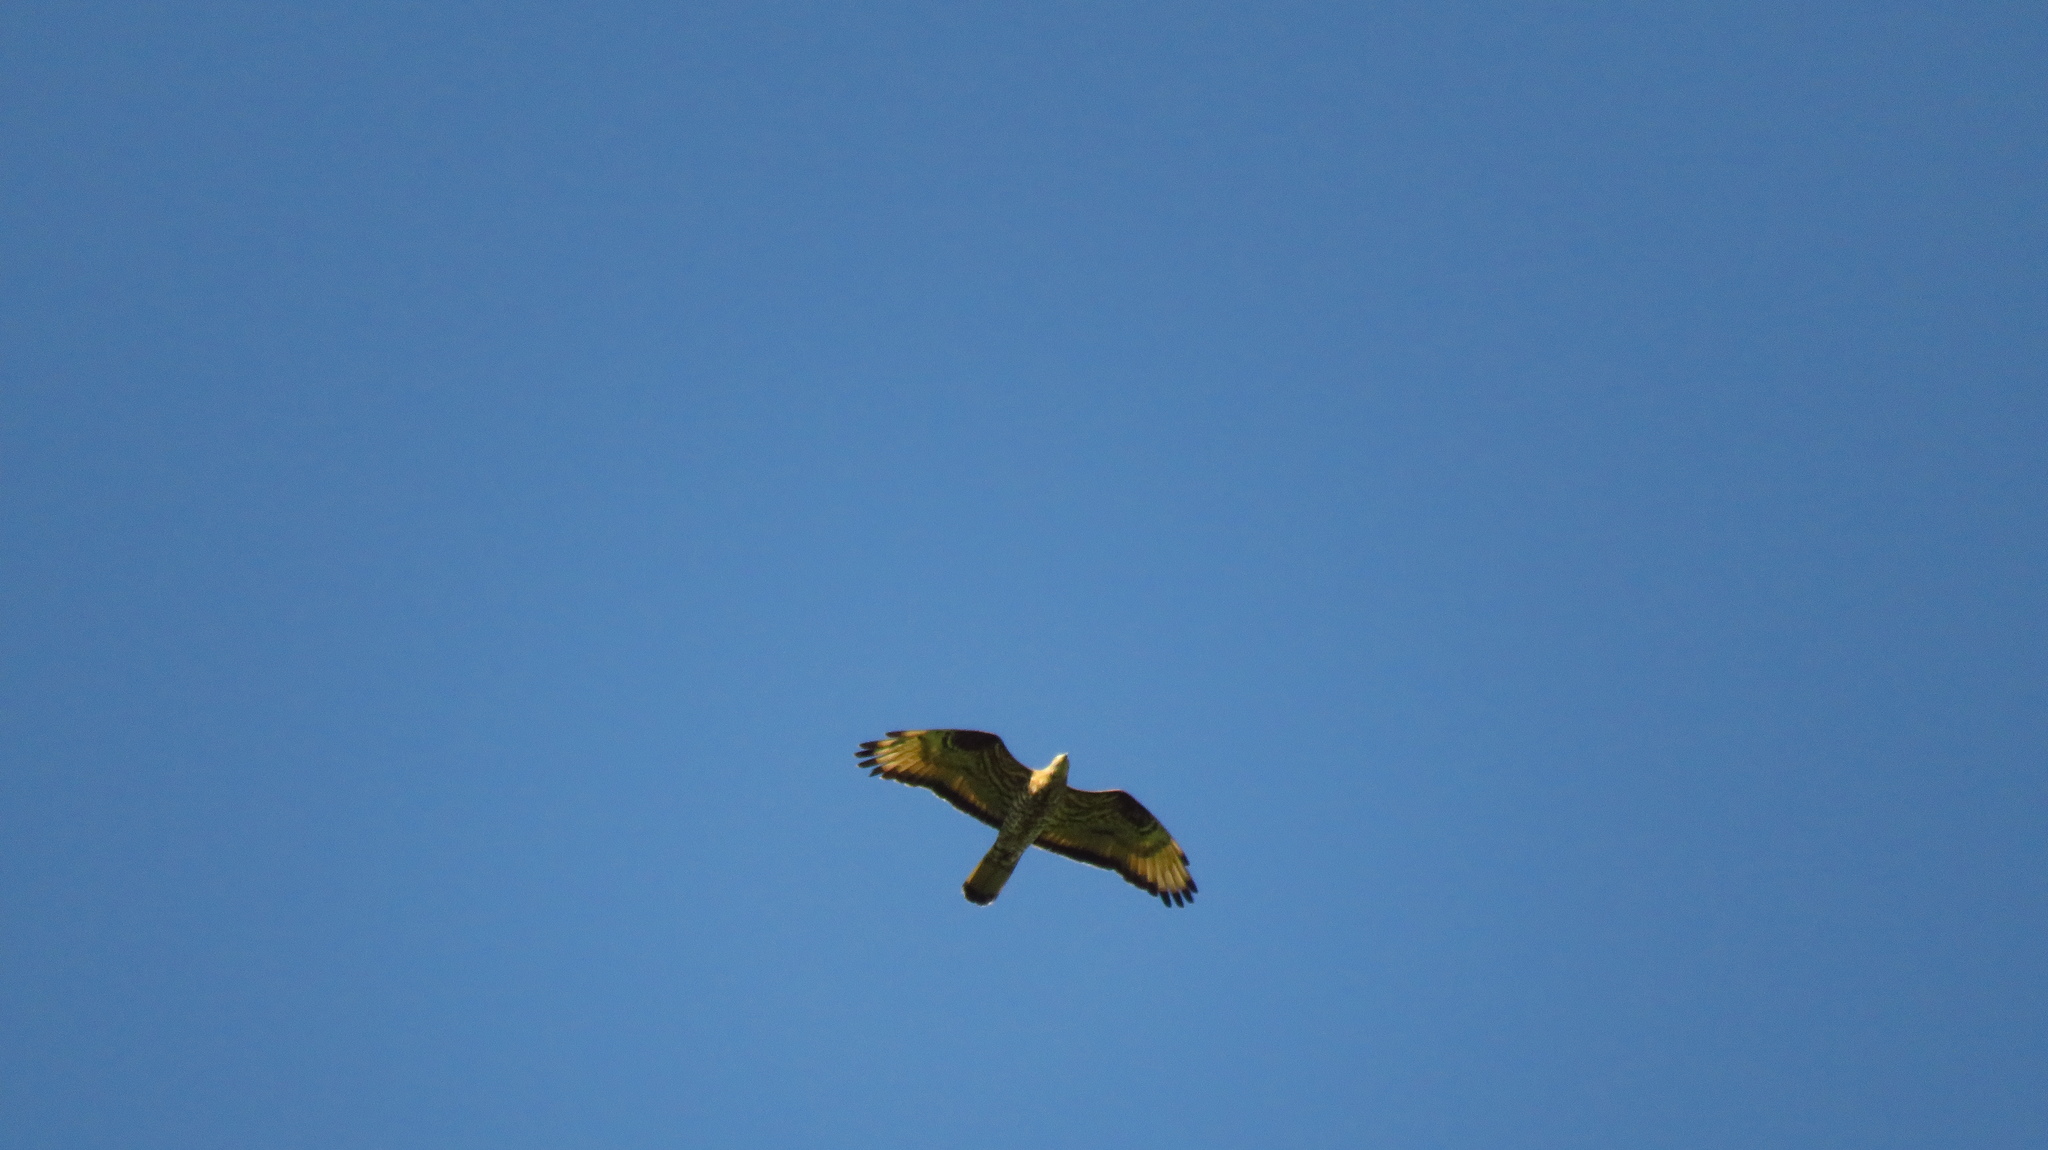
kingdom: Animalia
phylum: Chordata
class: Aves
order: Accipitriformes
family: Accipitridae
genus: Pernis
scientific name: Pernis apivorus
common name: European honey buzzard
